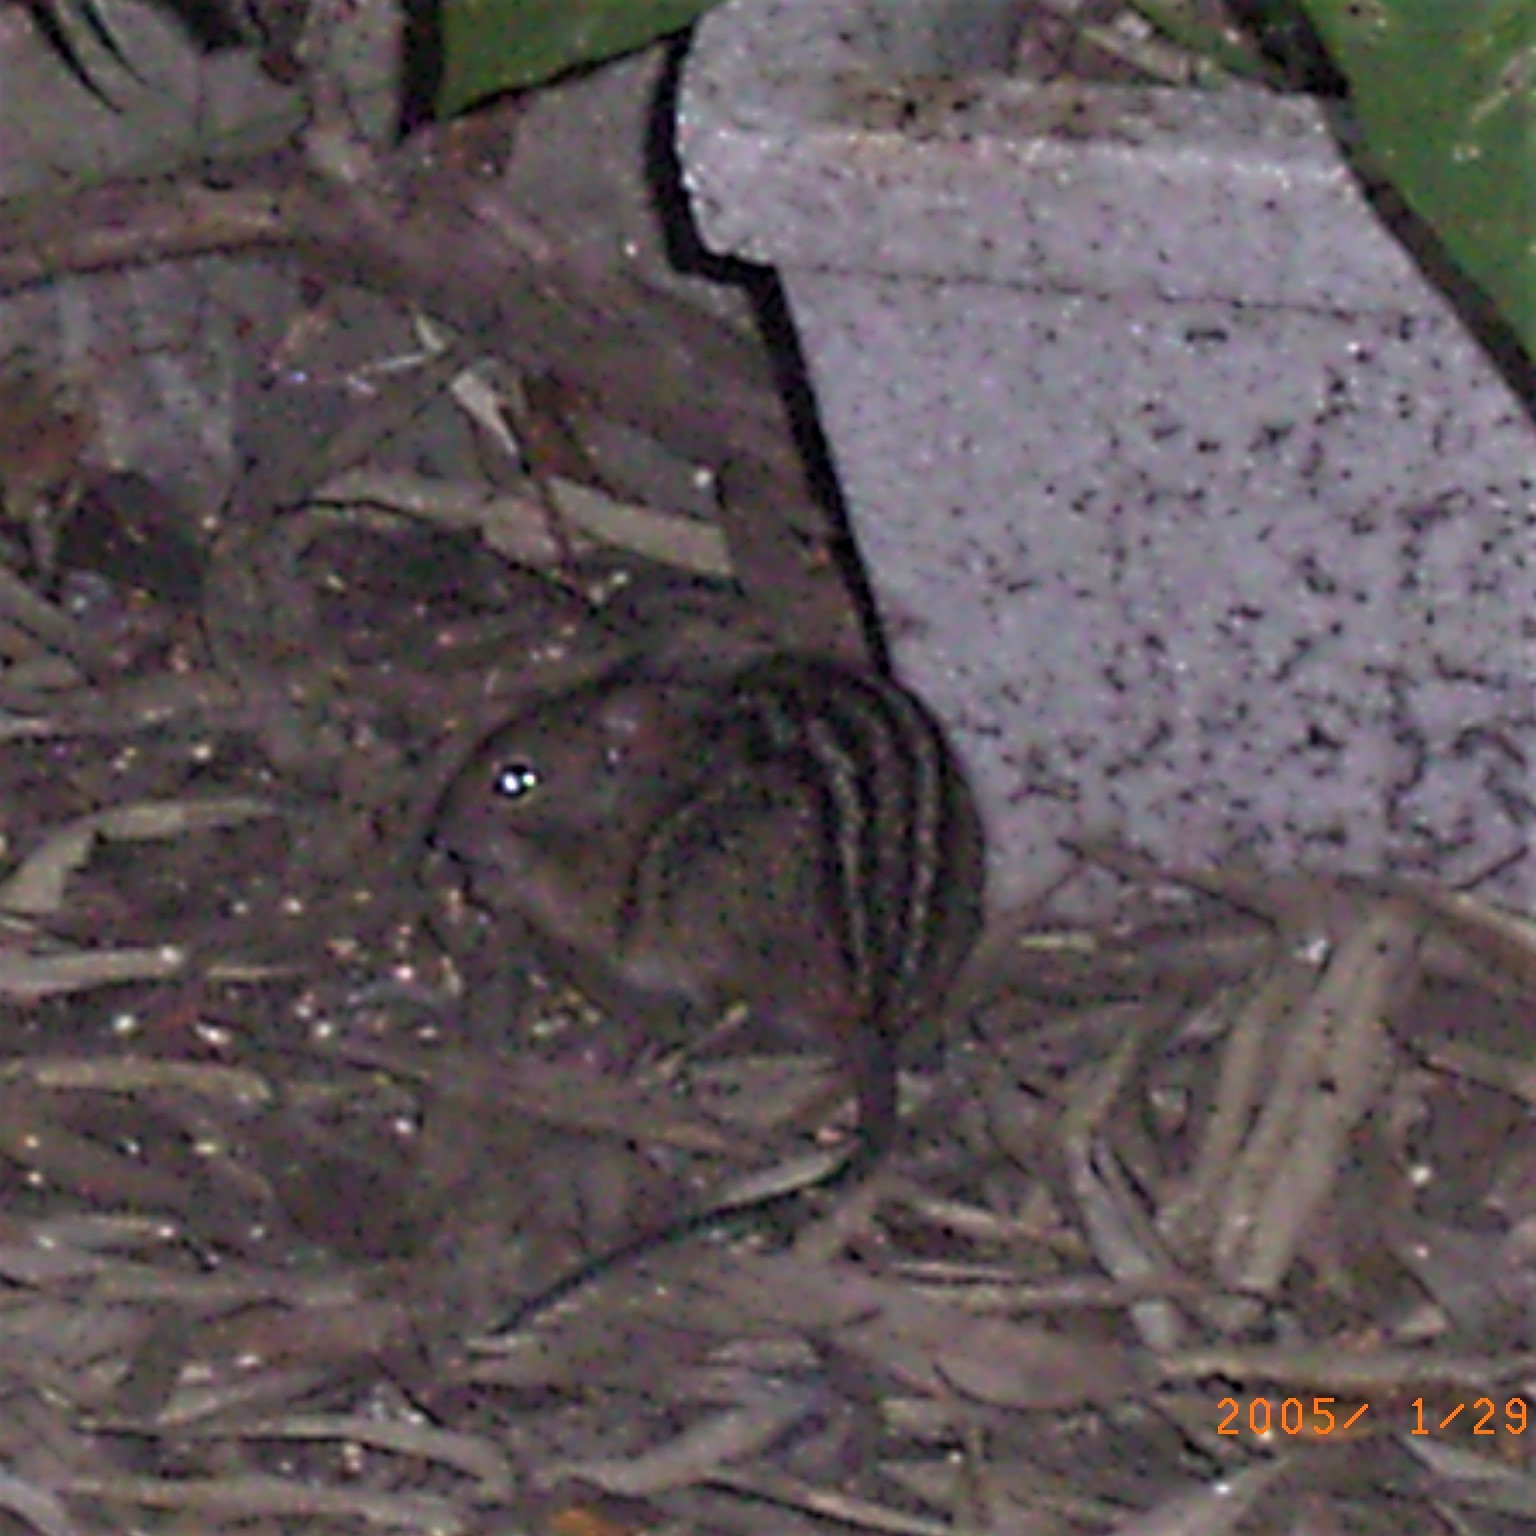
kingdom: Animalia
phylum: Chordata
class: Mammalia
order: Rodentia
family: Muridae
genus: Rhabdomys
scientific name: Rhabdomys pumilio
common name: Xeric four-striped grass rat
